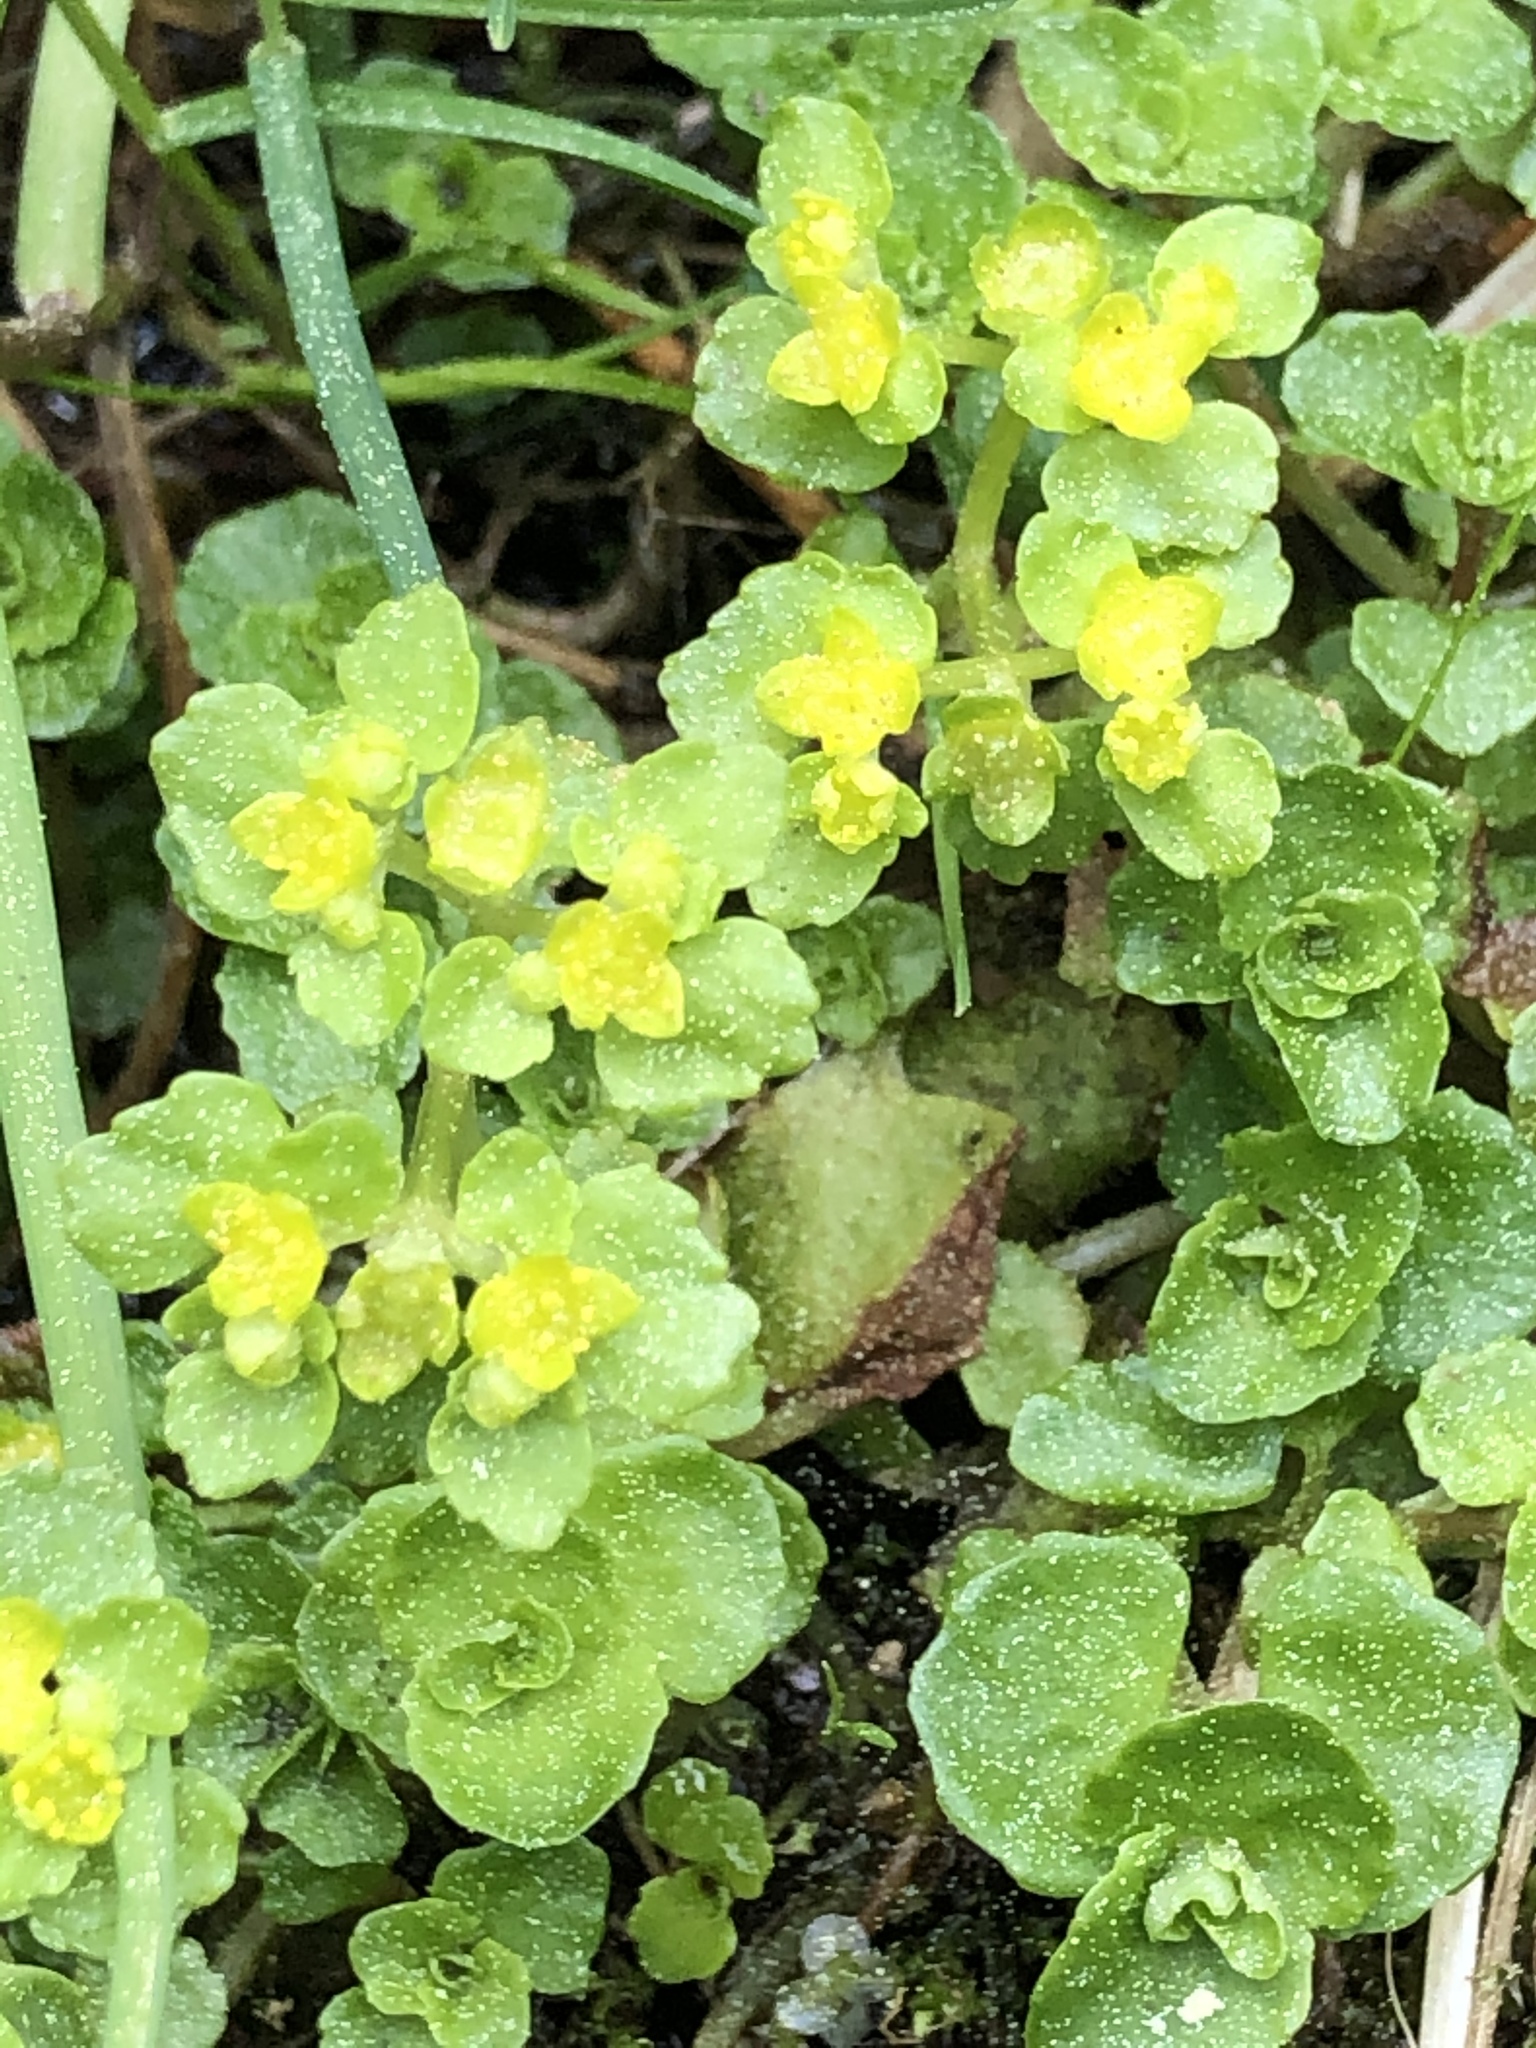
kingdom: Plantae
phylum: Tracheophyta
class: Magnoliopsida
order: Saxifragales
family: Saxifragaceae
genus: Chrysosplenium
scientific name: Chrysosplenium oppositifolium
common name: Opposite-leaved golden-saxifrage
